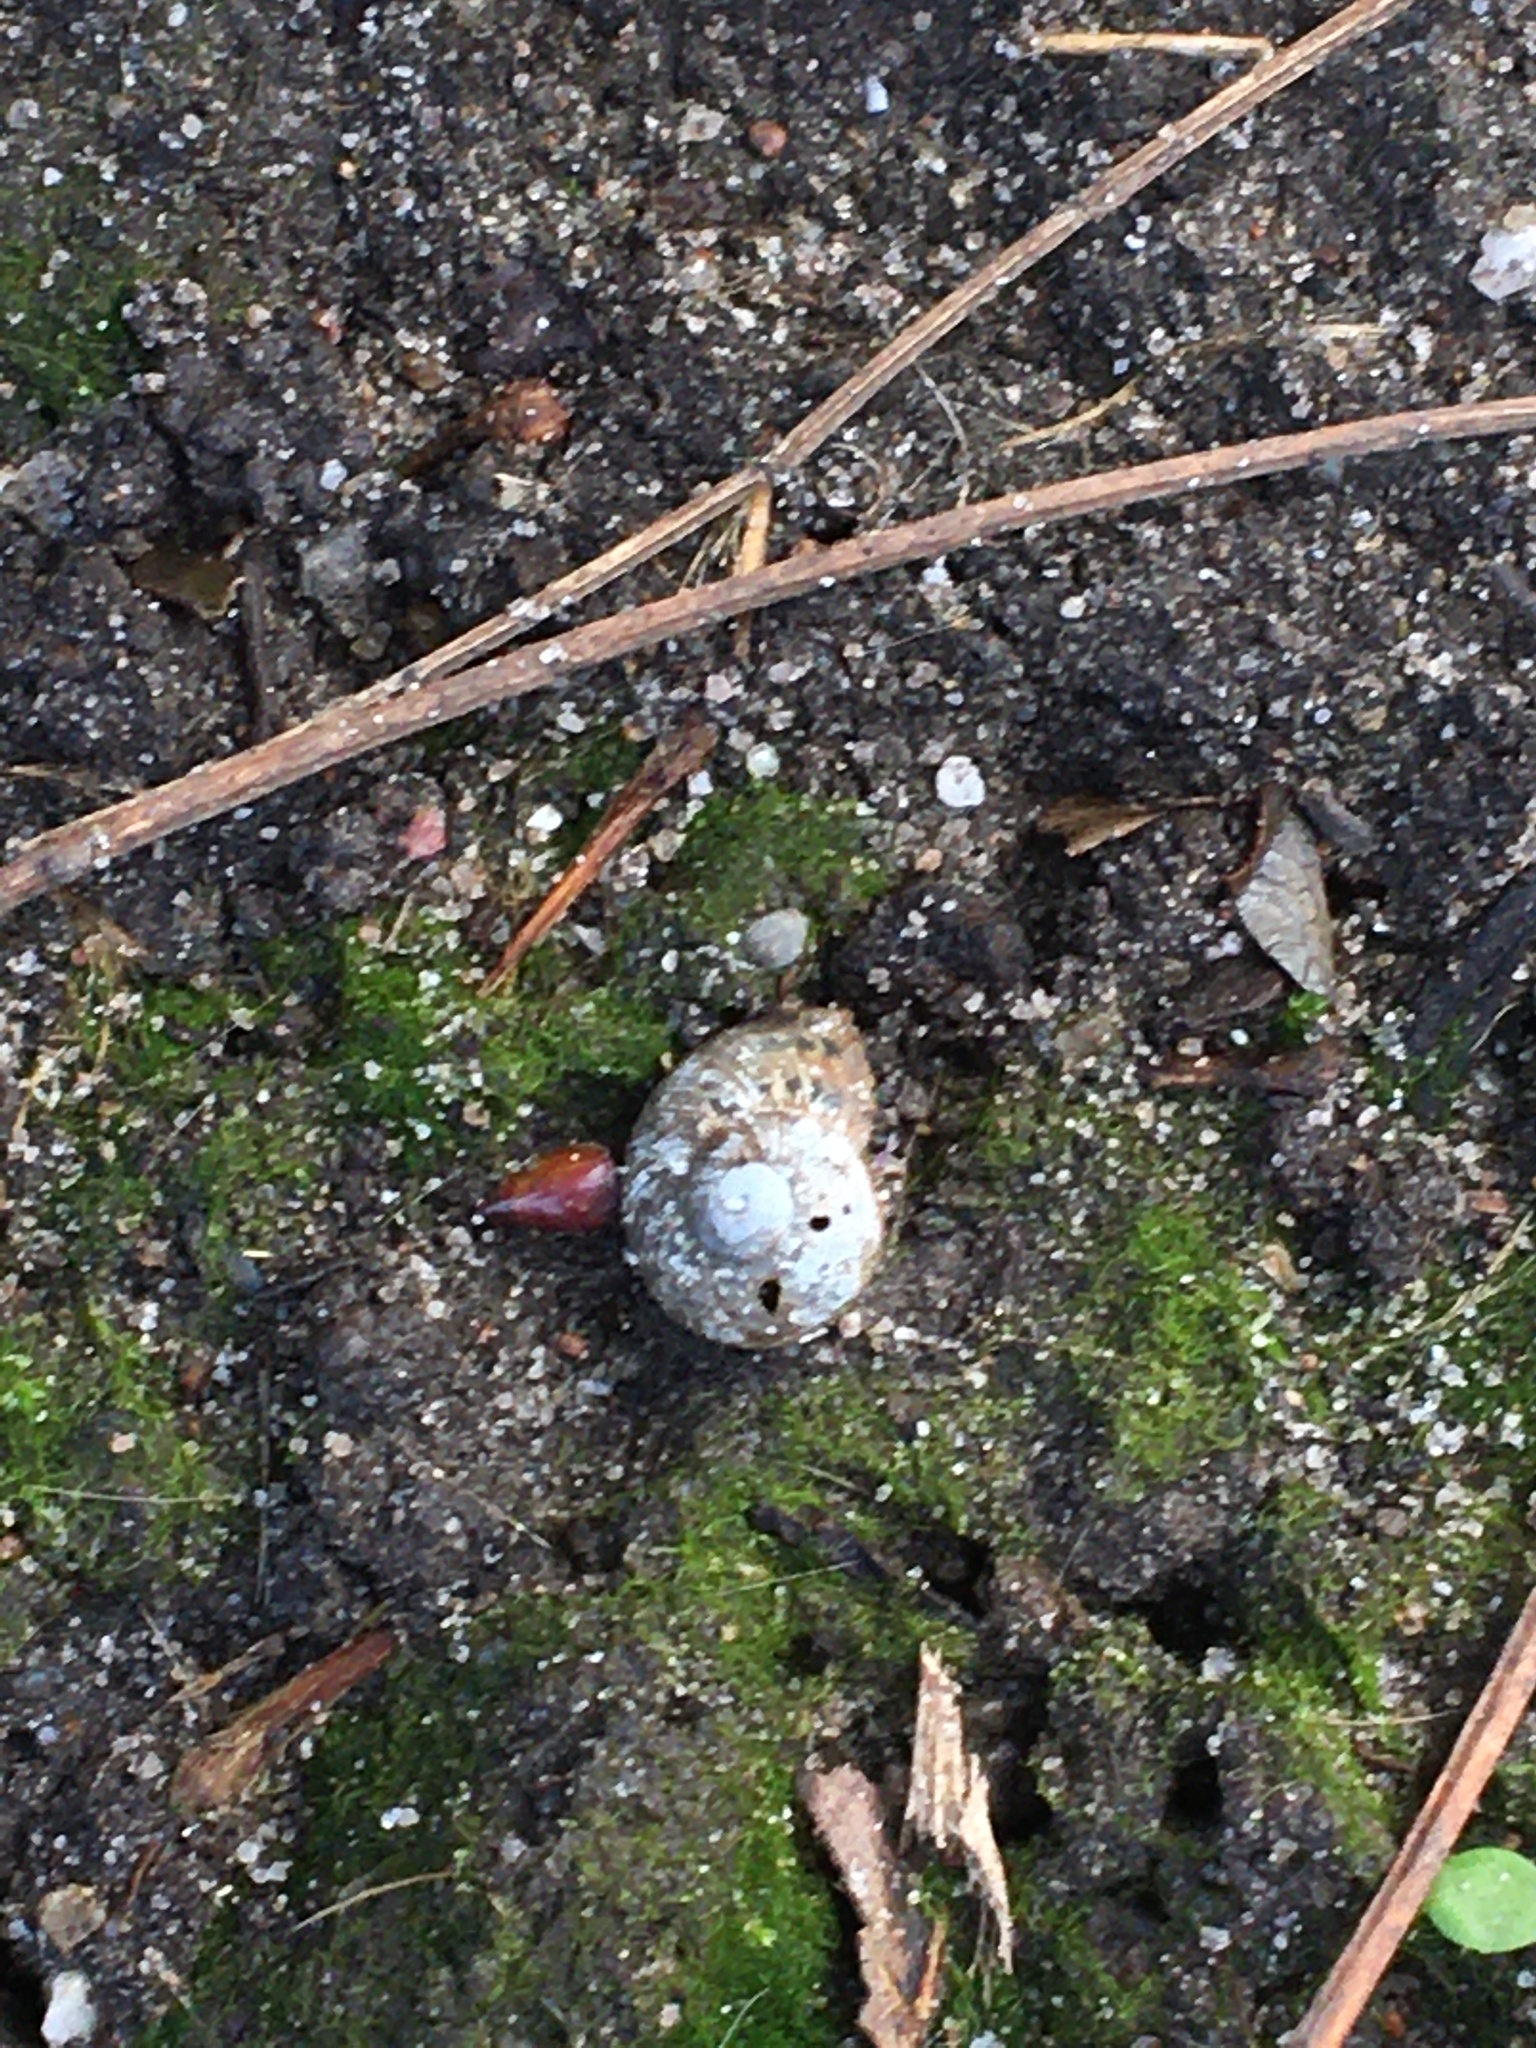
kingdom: Animalia
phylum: Mollusca
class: Gastropoda
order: Stylommatophora
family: Helicidae
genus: Cornu
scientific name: Cornu aspersum
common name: Brown garden snail
